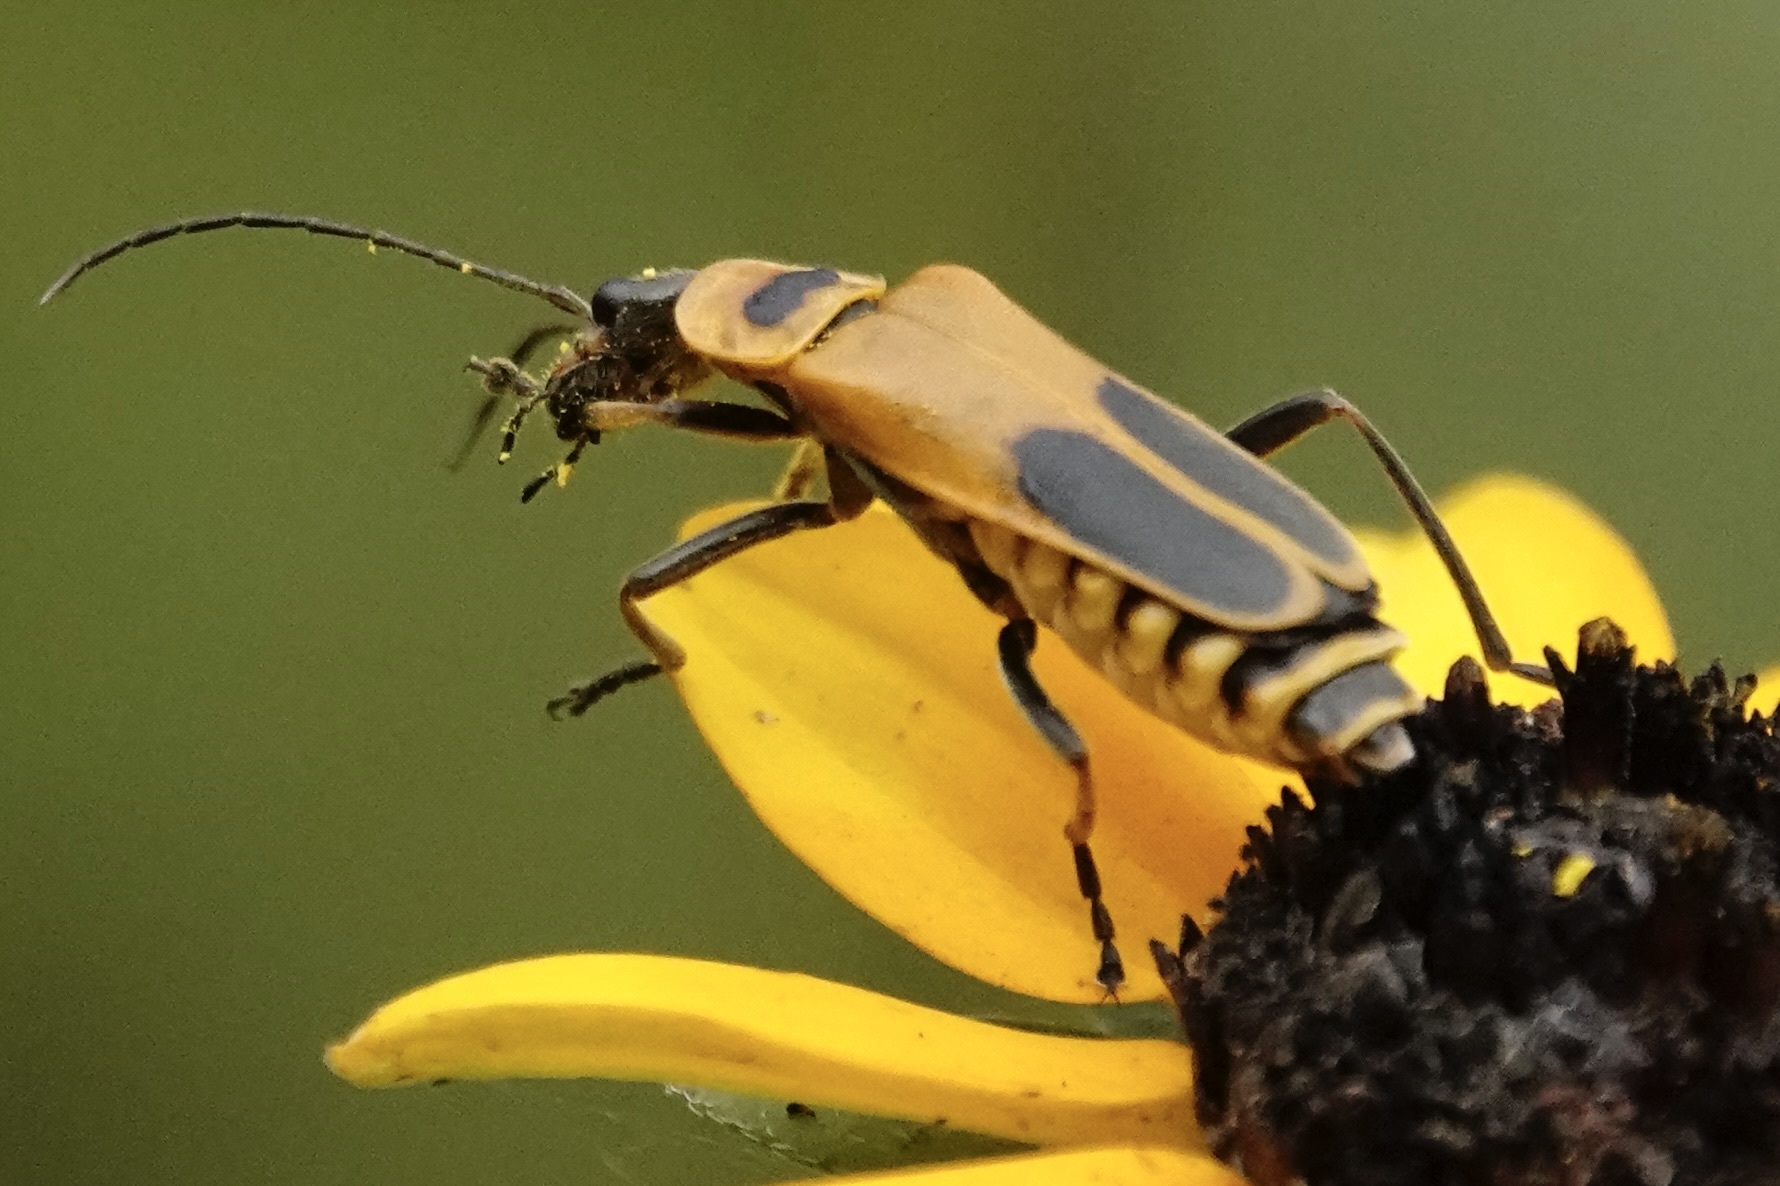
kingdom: Animalia
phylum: Arthropoda
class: Insecta
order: Coleoptera
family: Cantharidae
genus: Chauliognathus
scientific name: Chauliognathus pensylvanicus
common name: Goldenrod soldier beetle
